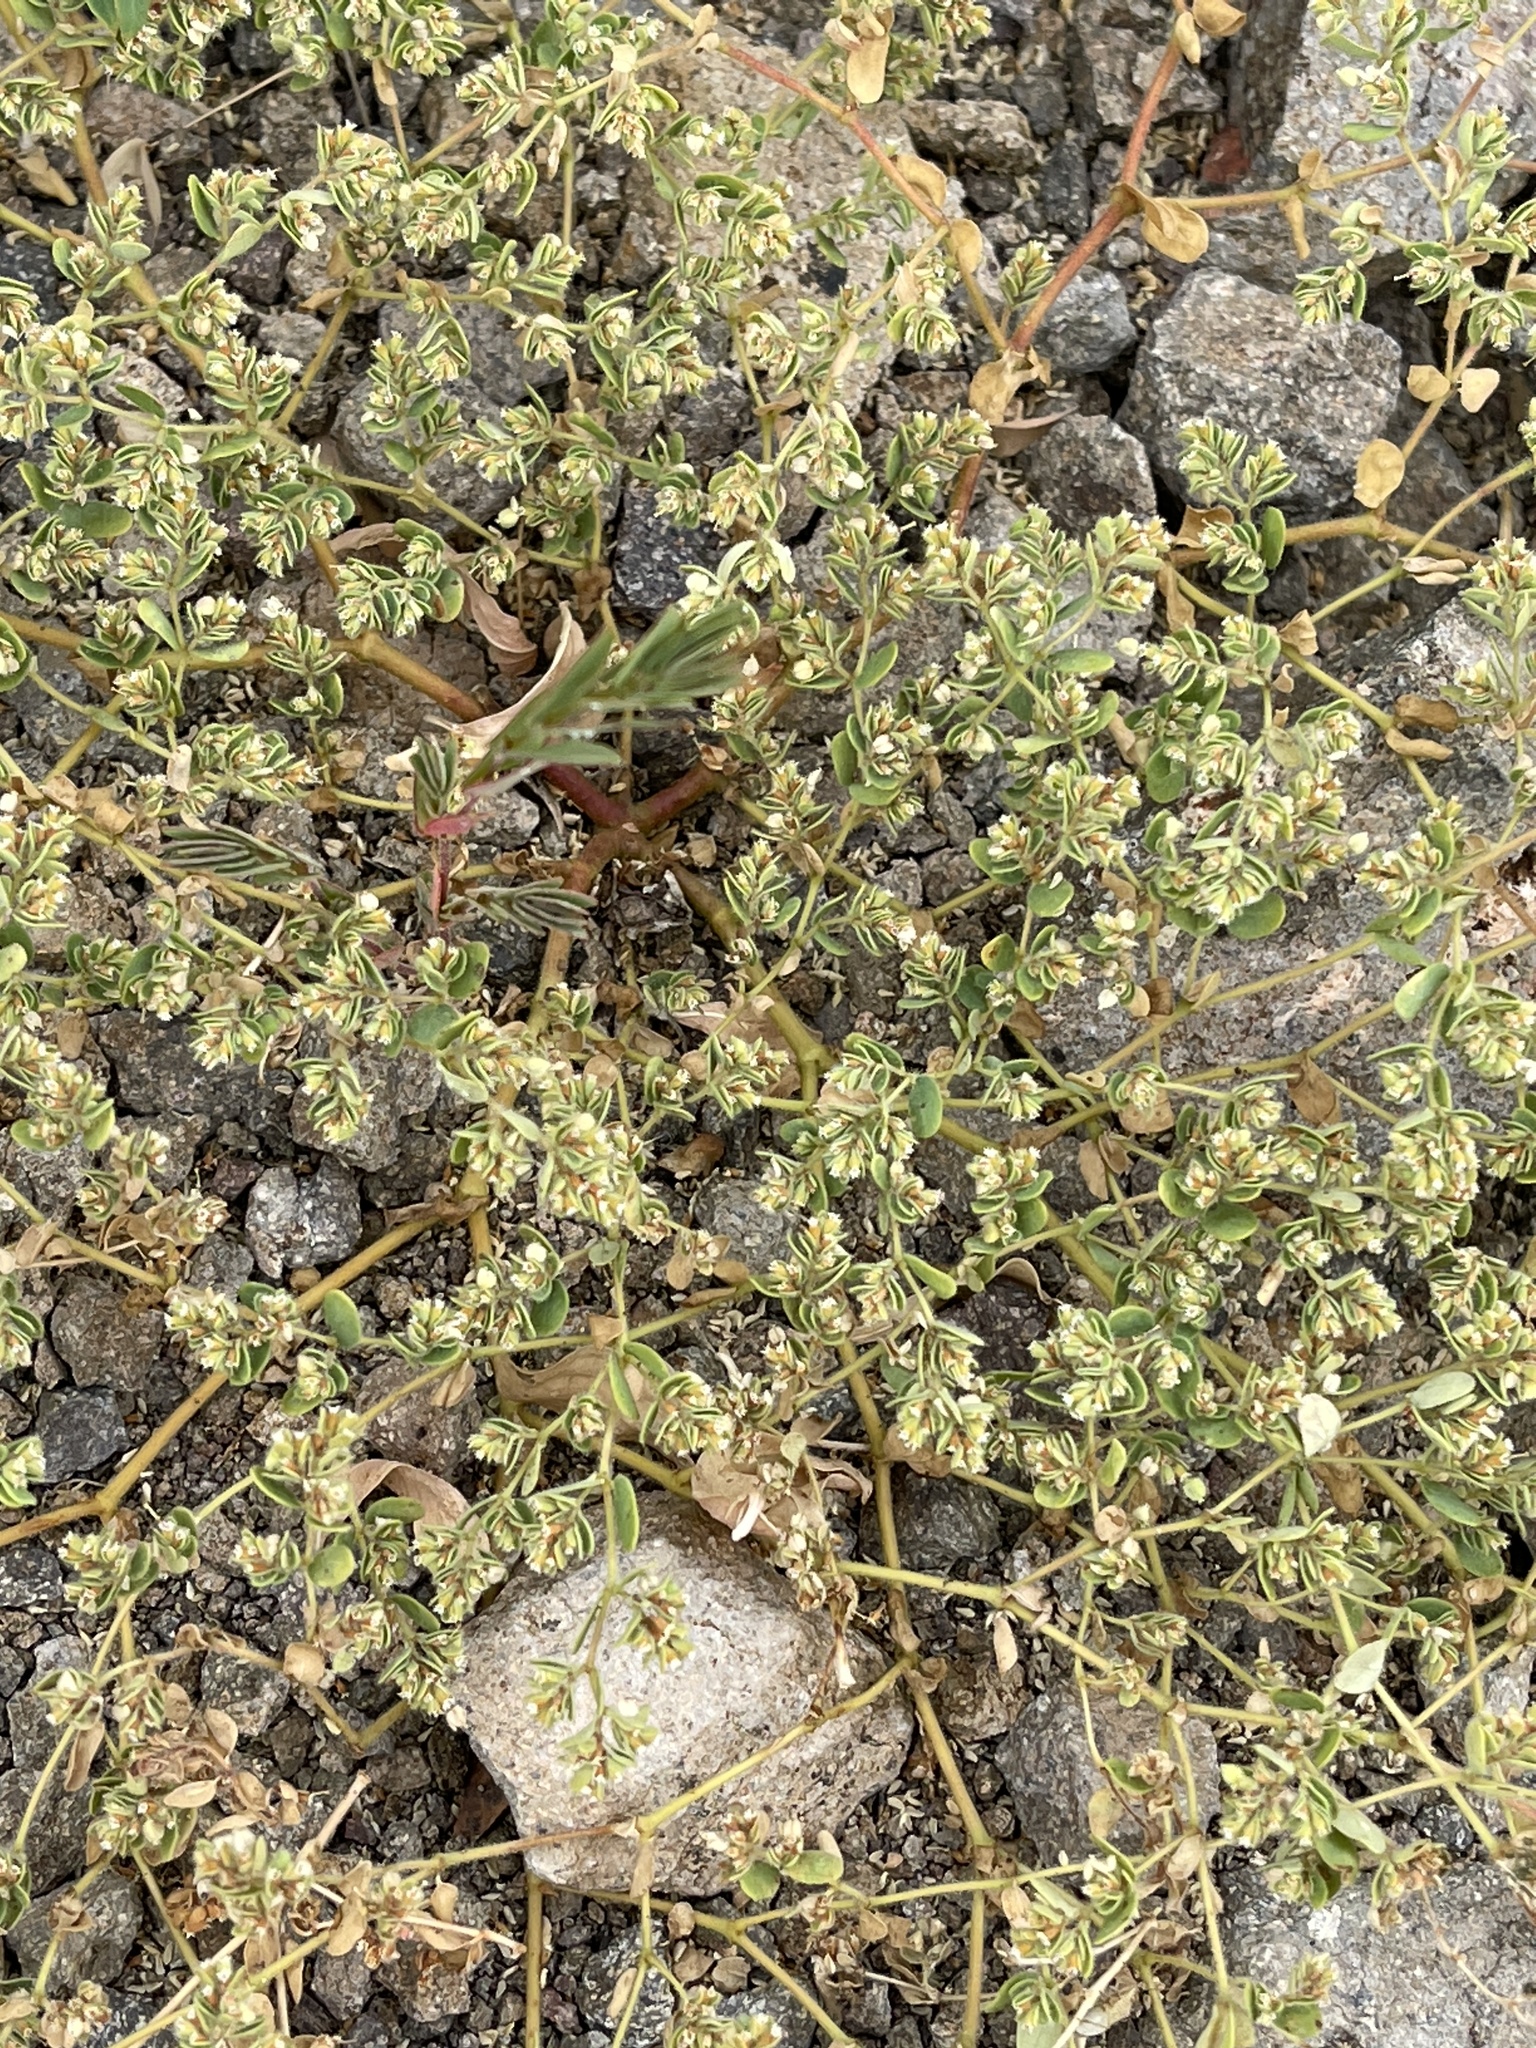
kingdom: Plantae
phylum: Tracheophyta
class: Magnoliopsida
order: Malpighiales
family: Euphorbiaceae
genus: Euphorbia
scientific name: Euphorbia setiloba
